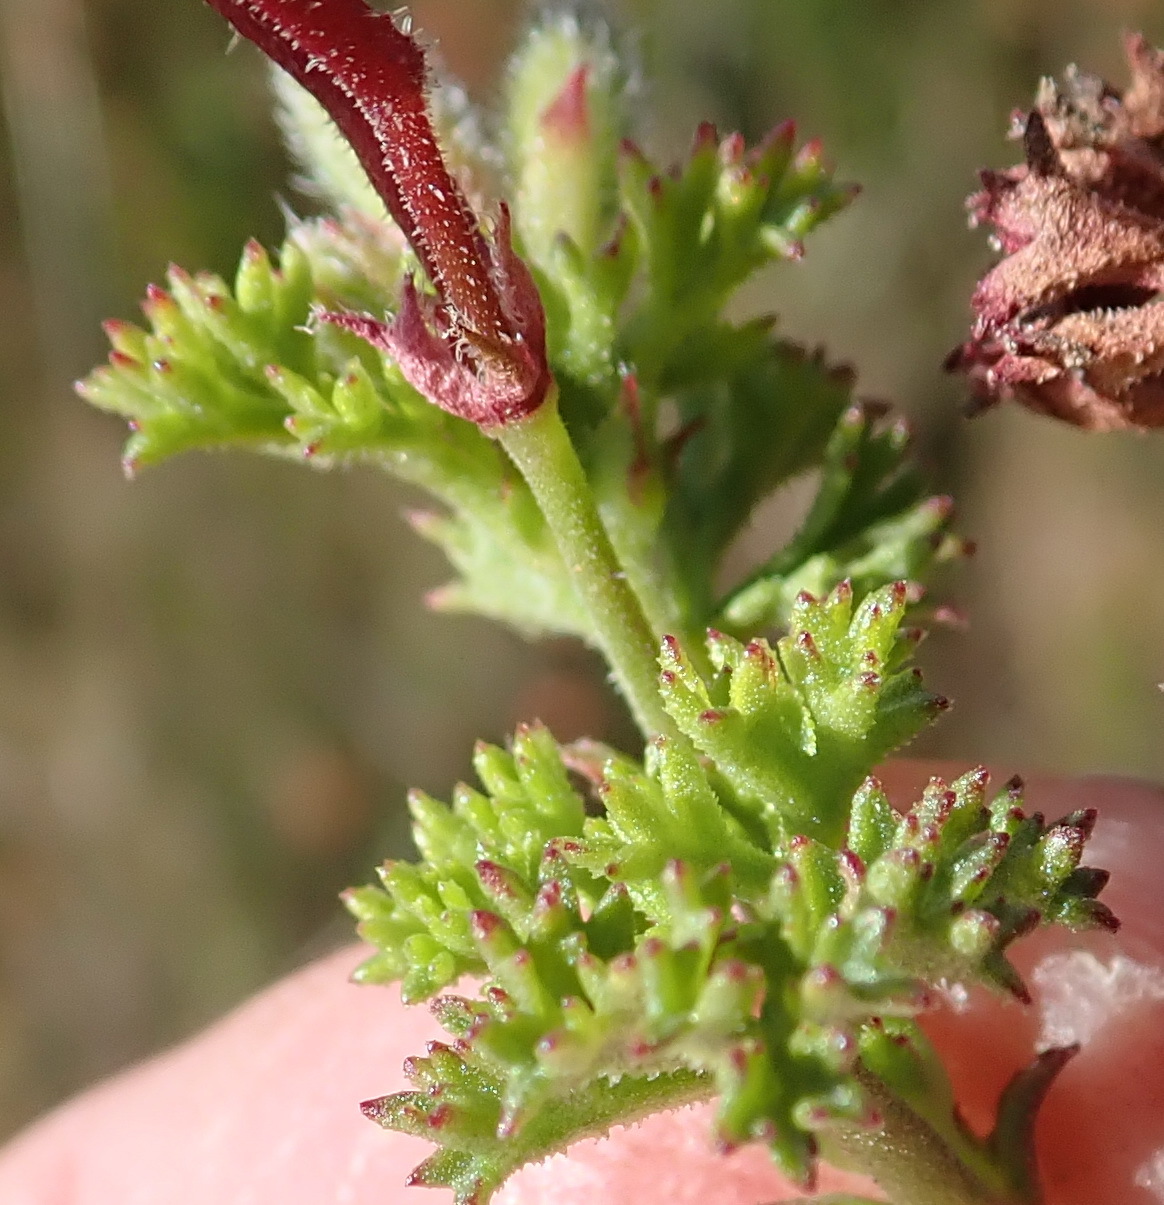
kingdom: Plantae
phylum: Tracheophyta
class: Magnoliopsida
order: Geraniales
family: Geraniaceae
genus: Pelargonium
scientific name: Pelargonium fruticosum
